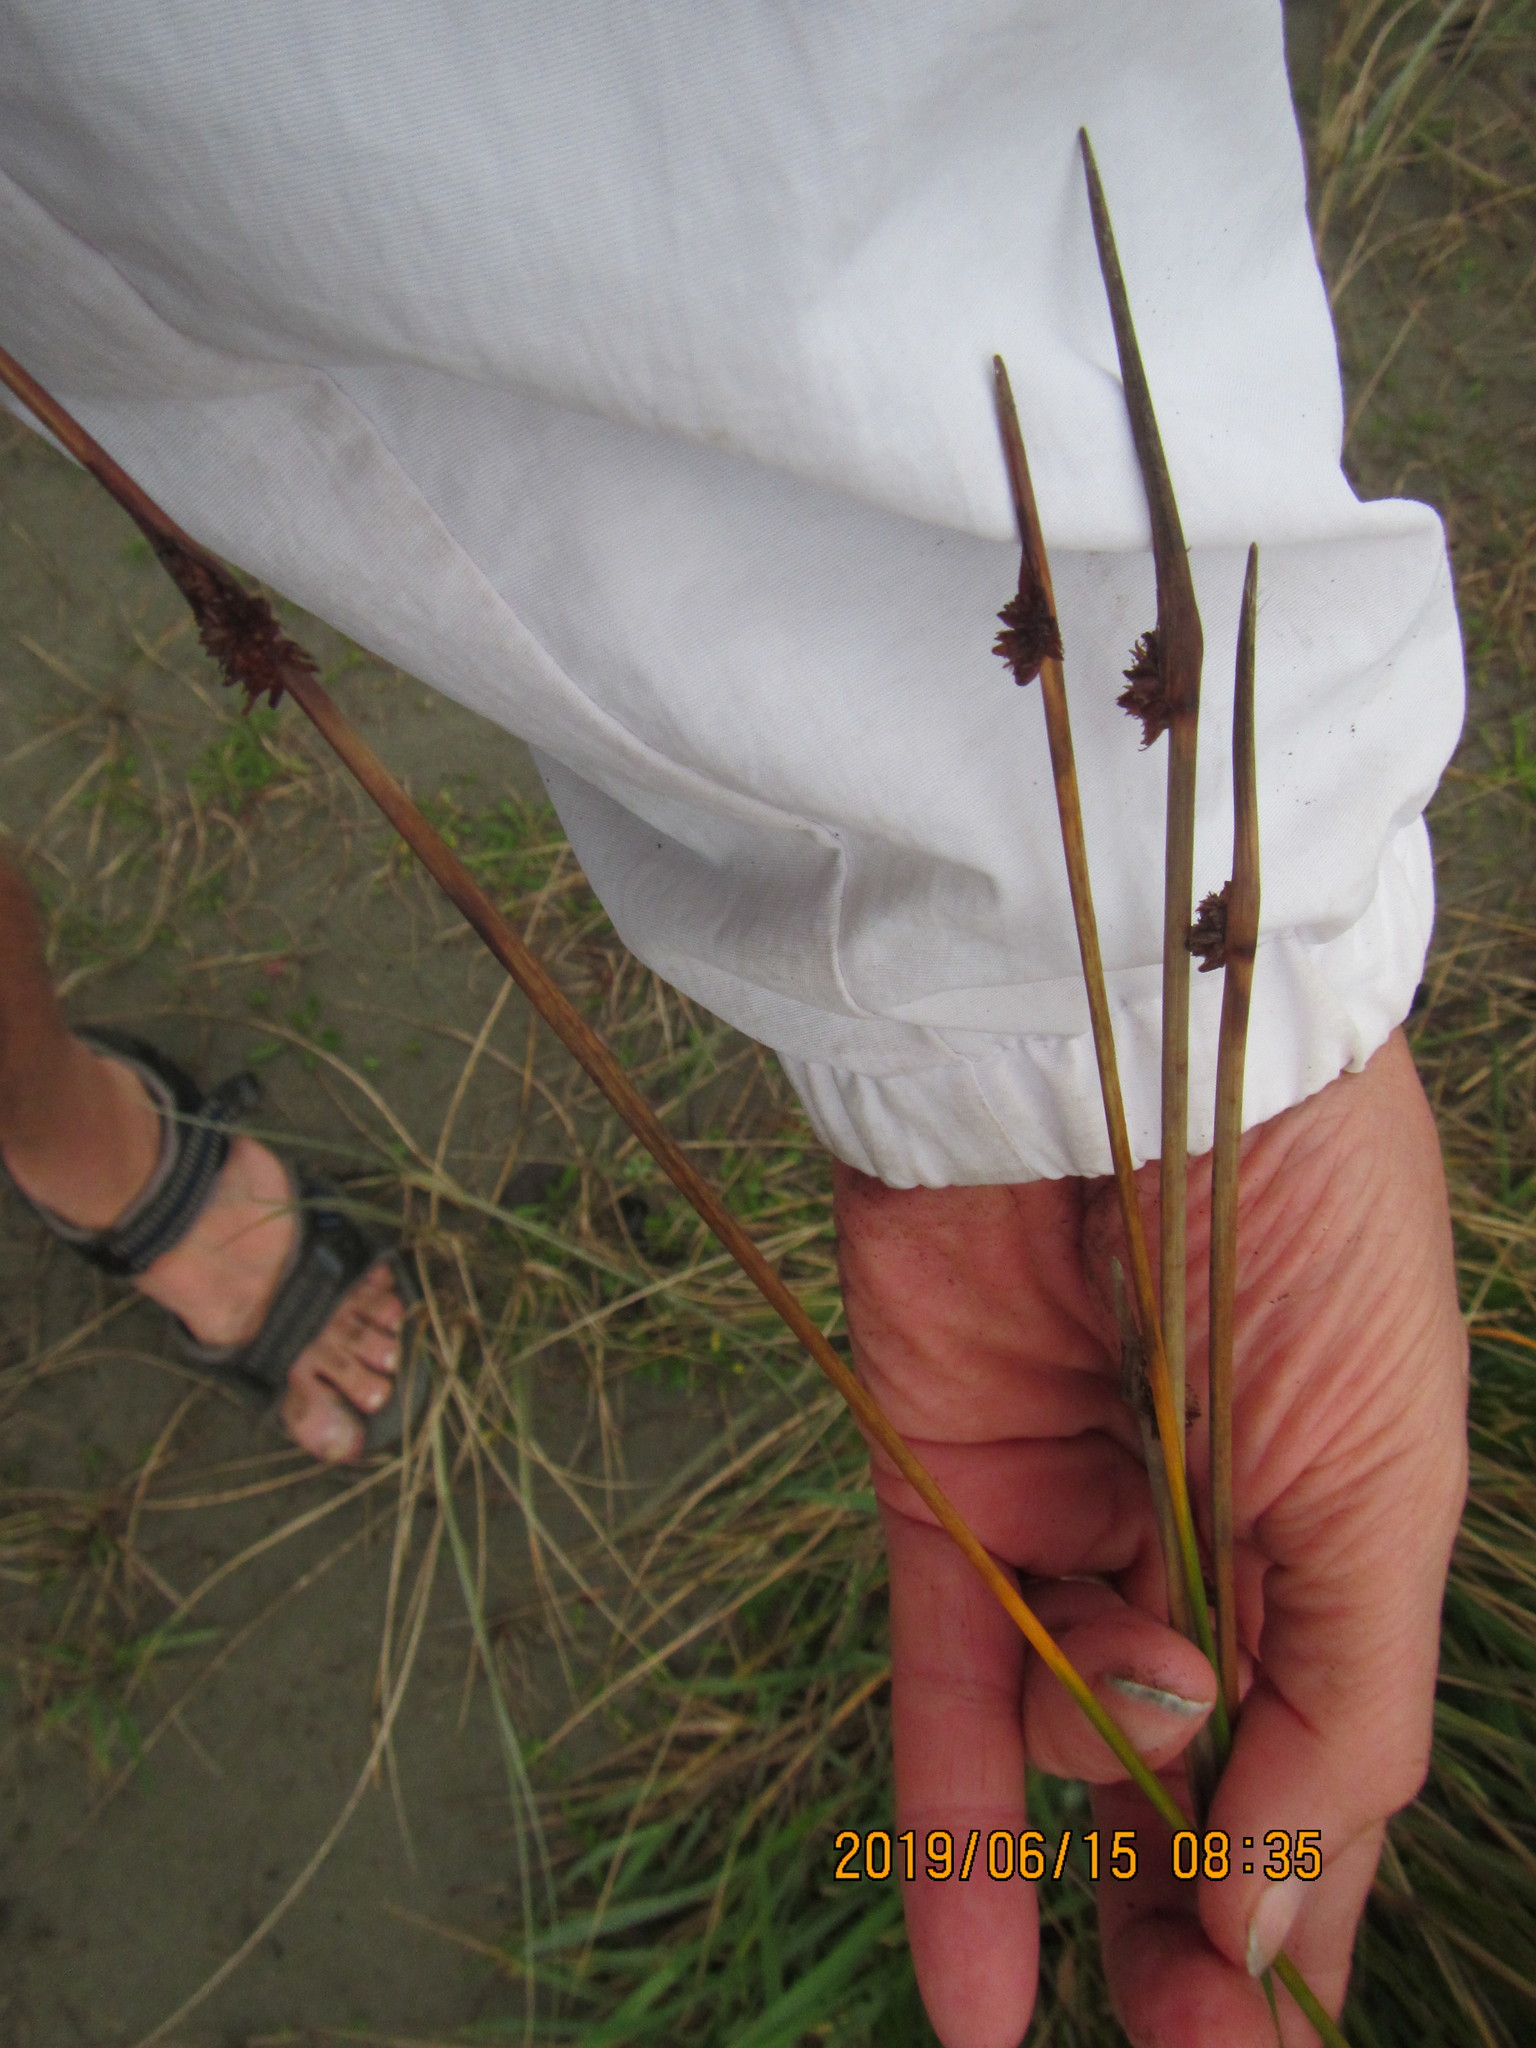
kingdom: Plantae
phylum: Tracheophyta
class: Liliopsida
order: Poales
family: Cyperaceae
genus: Ficinia
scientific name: Ficinia nodosa
